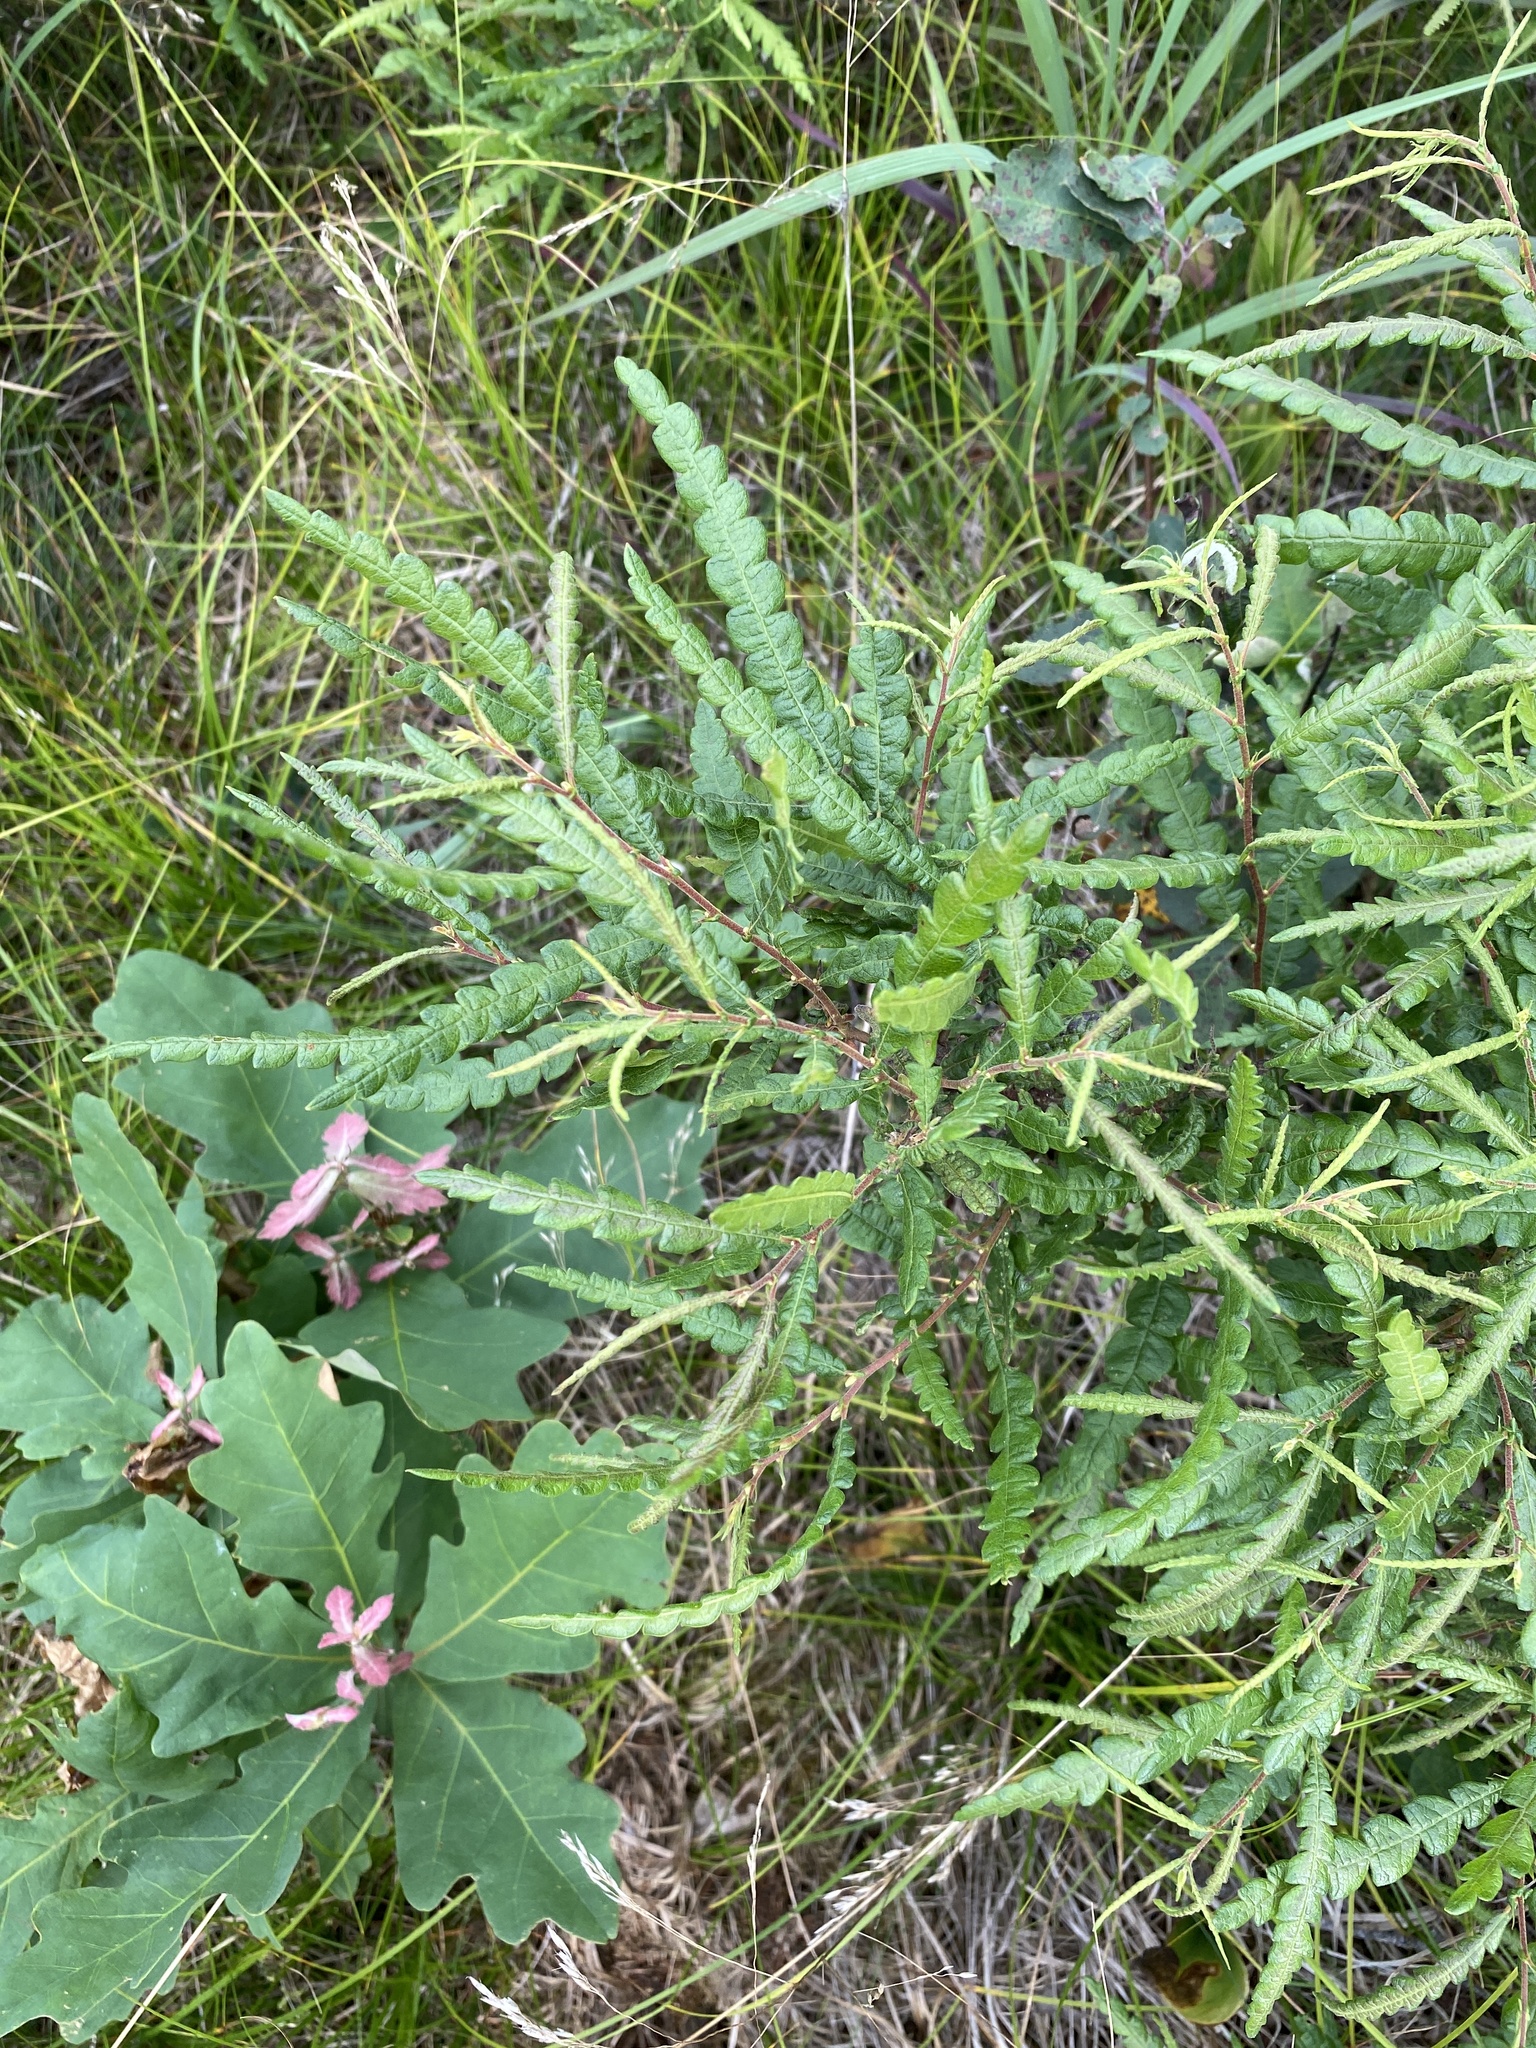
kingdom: Plantae
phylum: Tracheophyta
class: Magnoliopsida
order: Fagales
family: Myricaceae
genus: Comptonia
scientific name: Comptonia peregrina
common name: Sweet-fern
